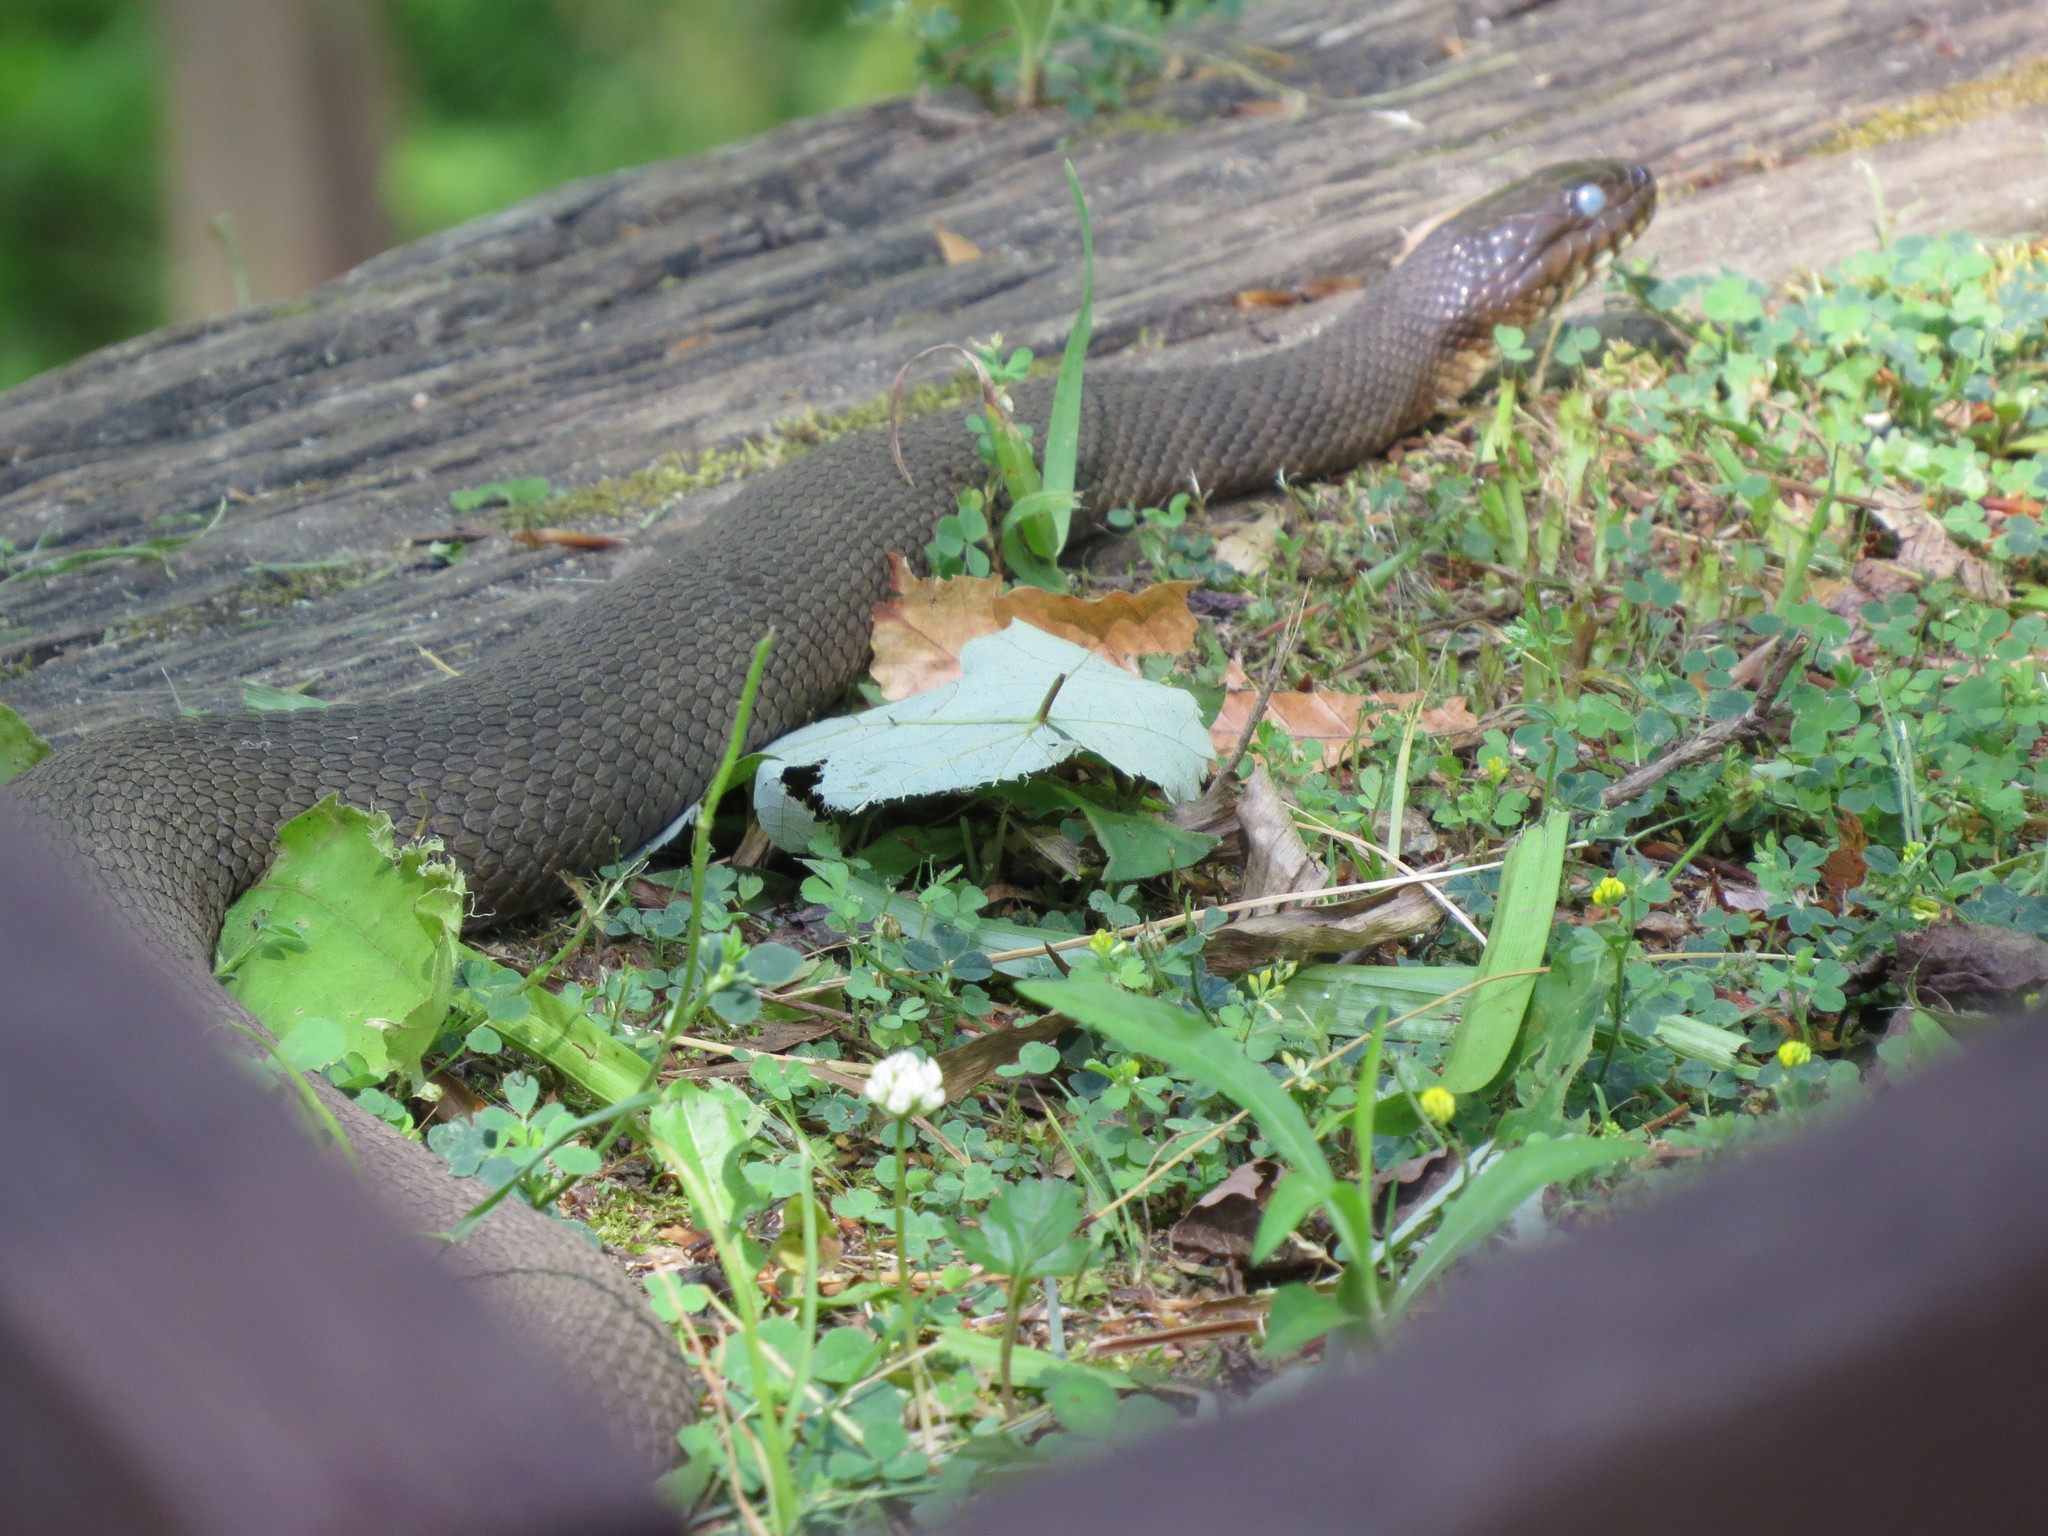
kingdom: Animalia
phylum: Chordata
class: Squamata
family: Colubridae
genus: Nerodia
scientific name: Nerodia sipedon
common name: Northern water snake
